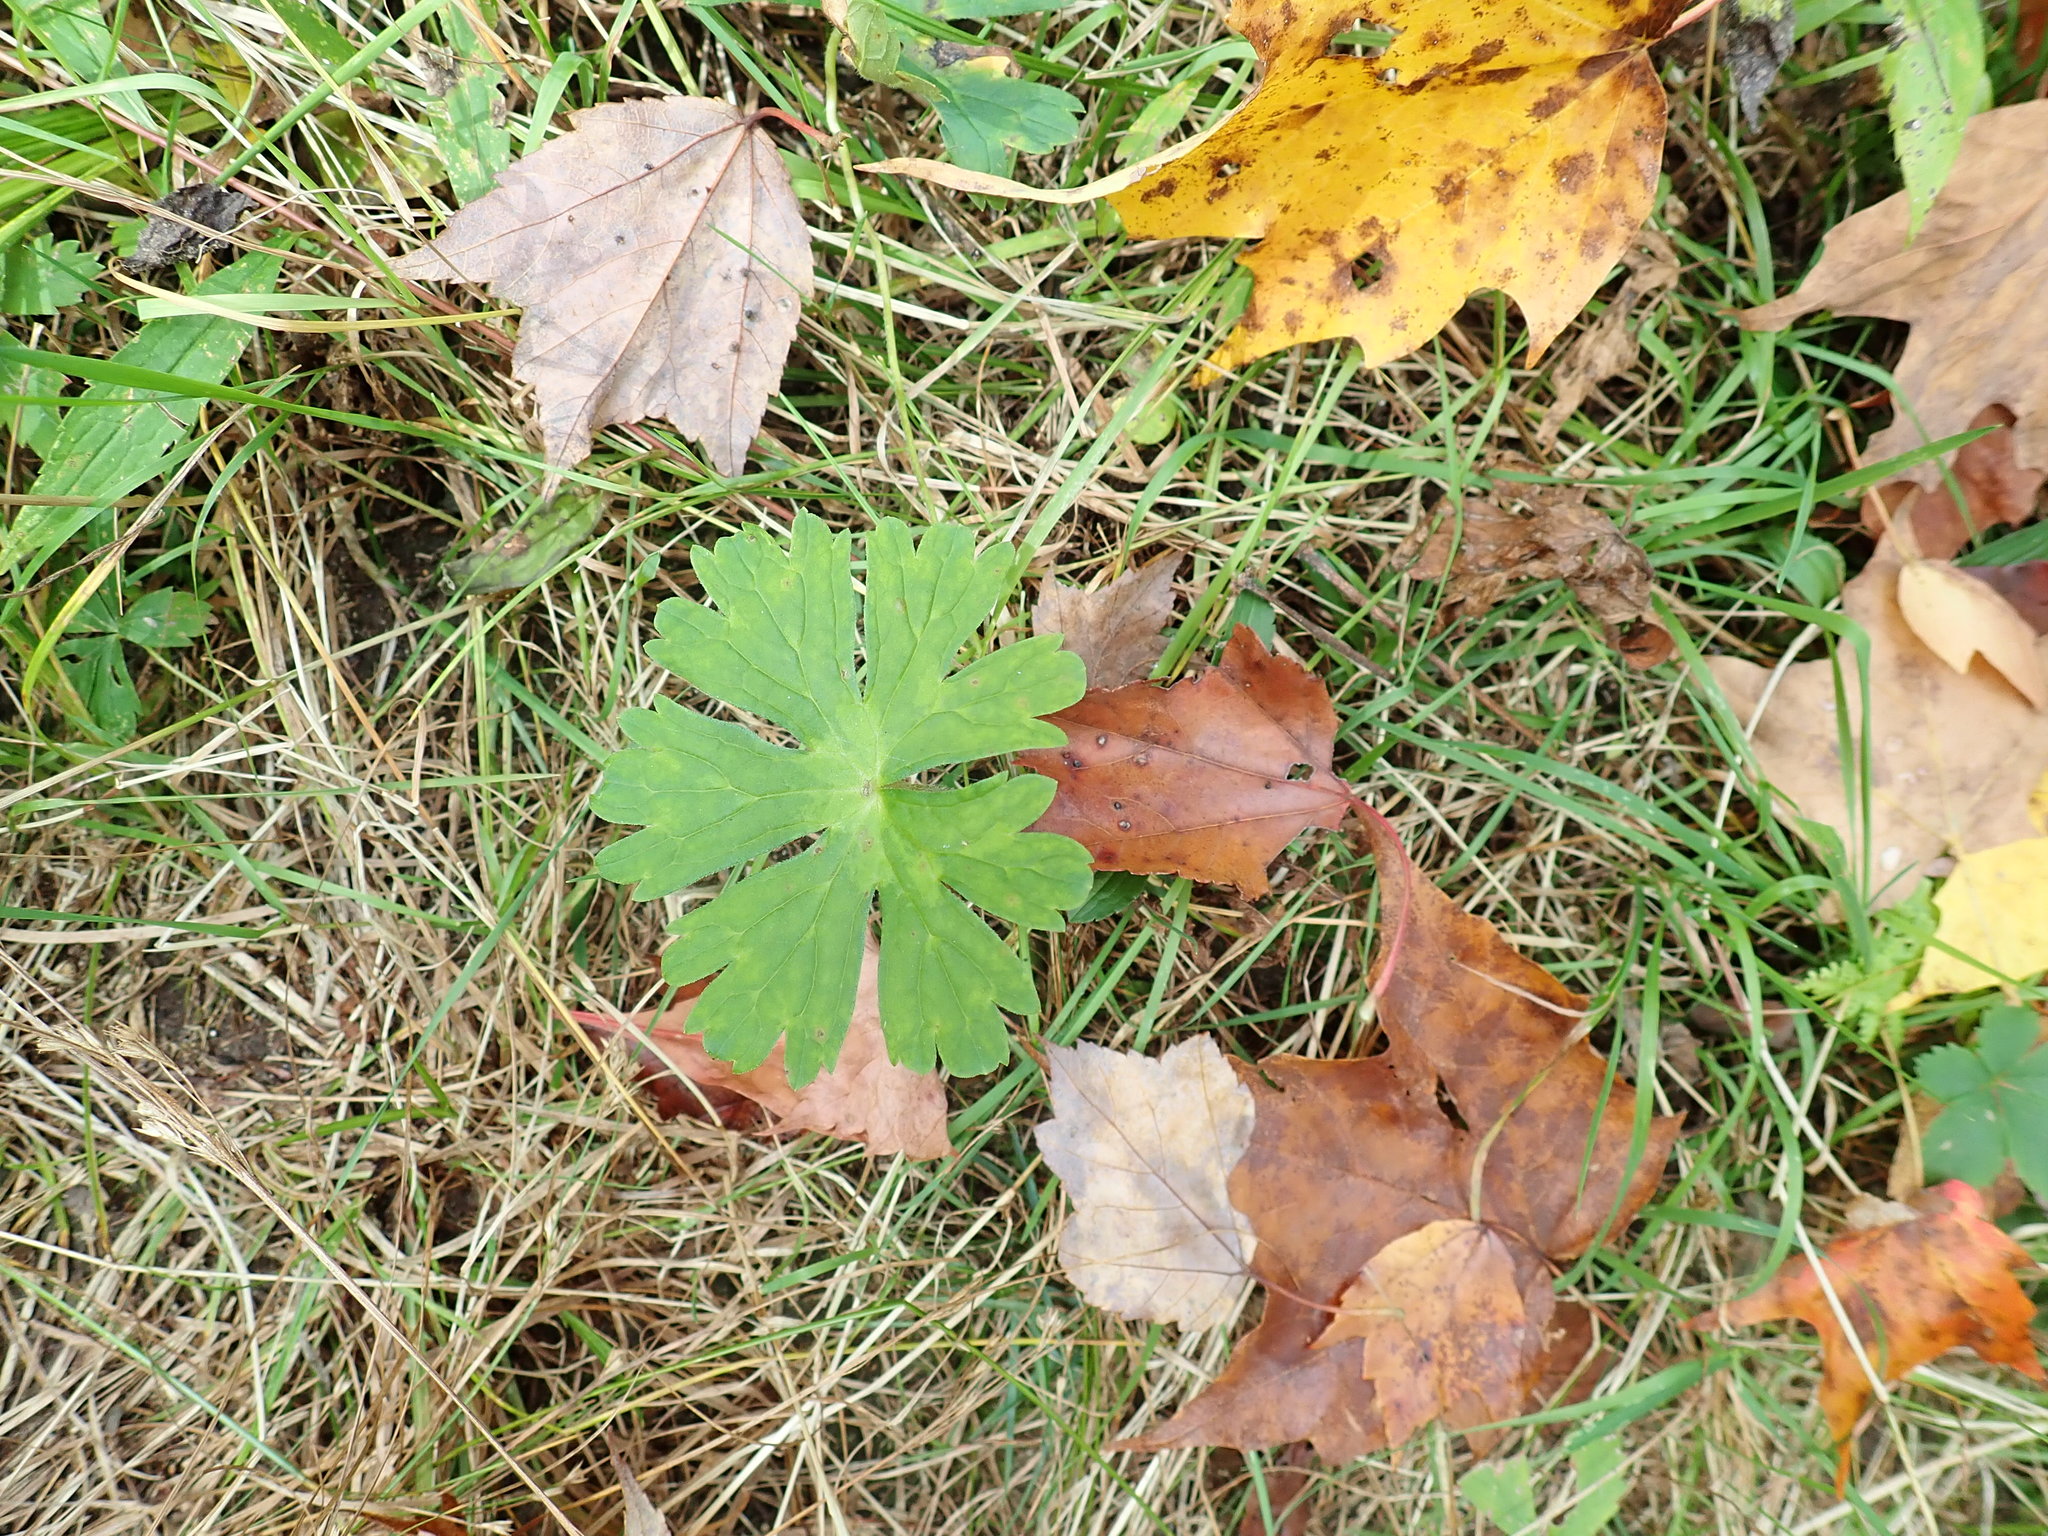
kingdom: Plantae
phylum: Tracheophyta
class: Magnoliopsida
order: Geraniales
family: Geraniaceae
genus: Geranium
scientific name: Geranium maculatum
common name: Spotted geranium
